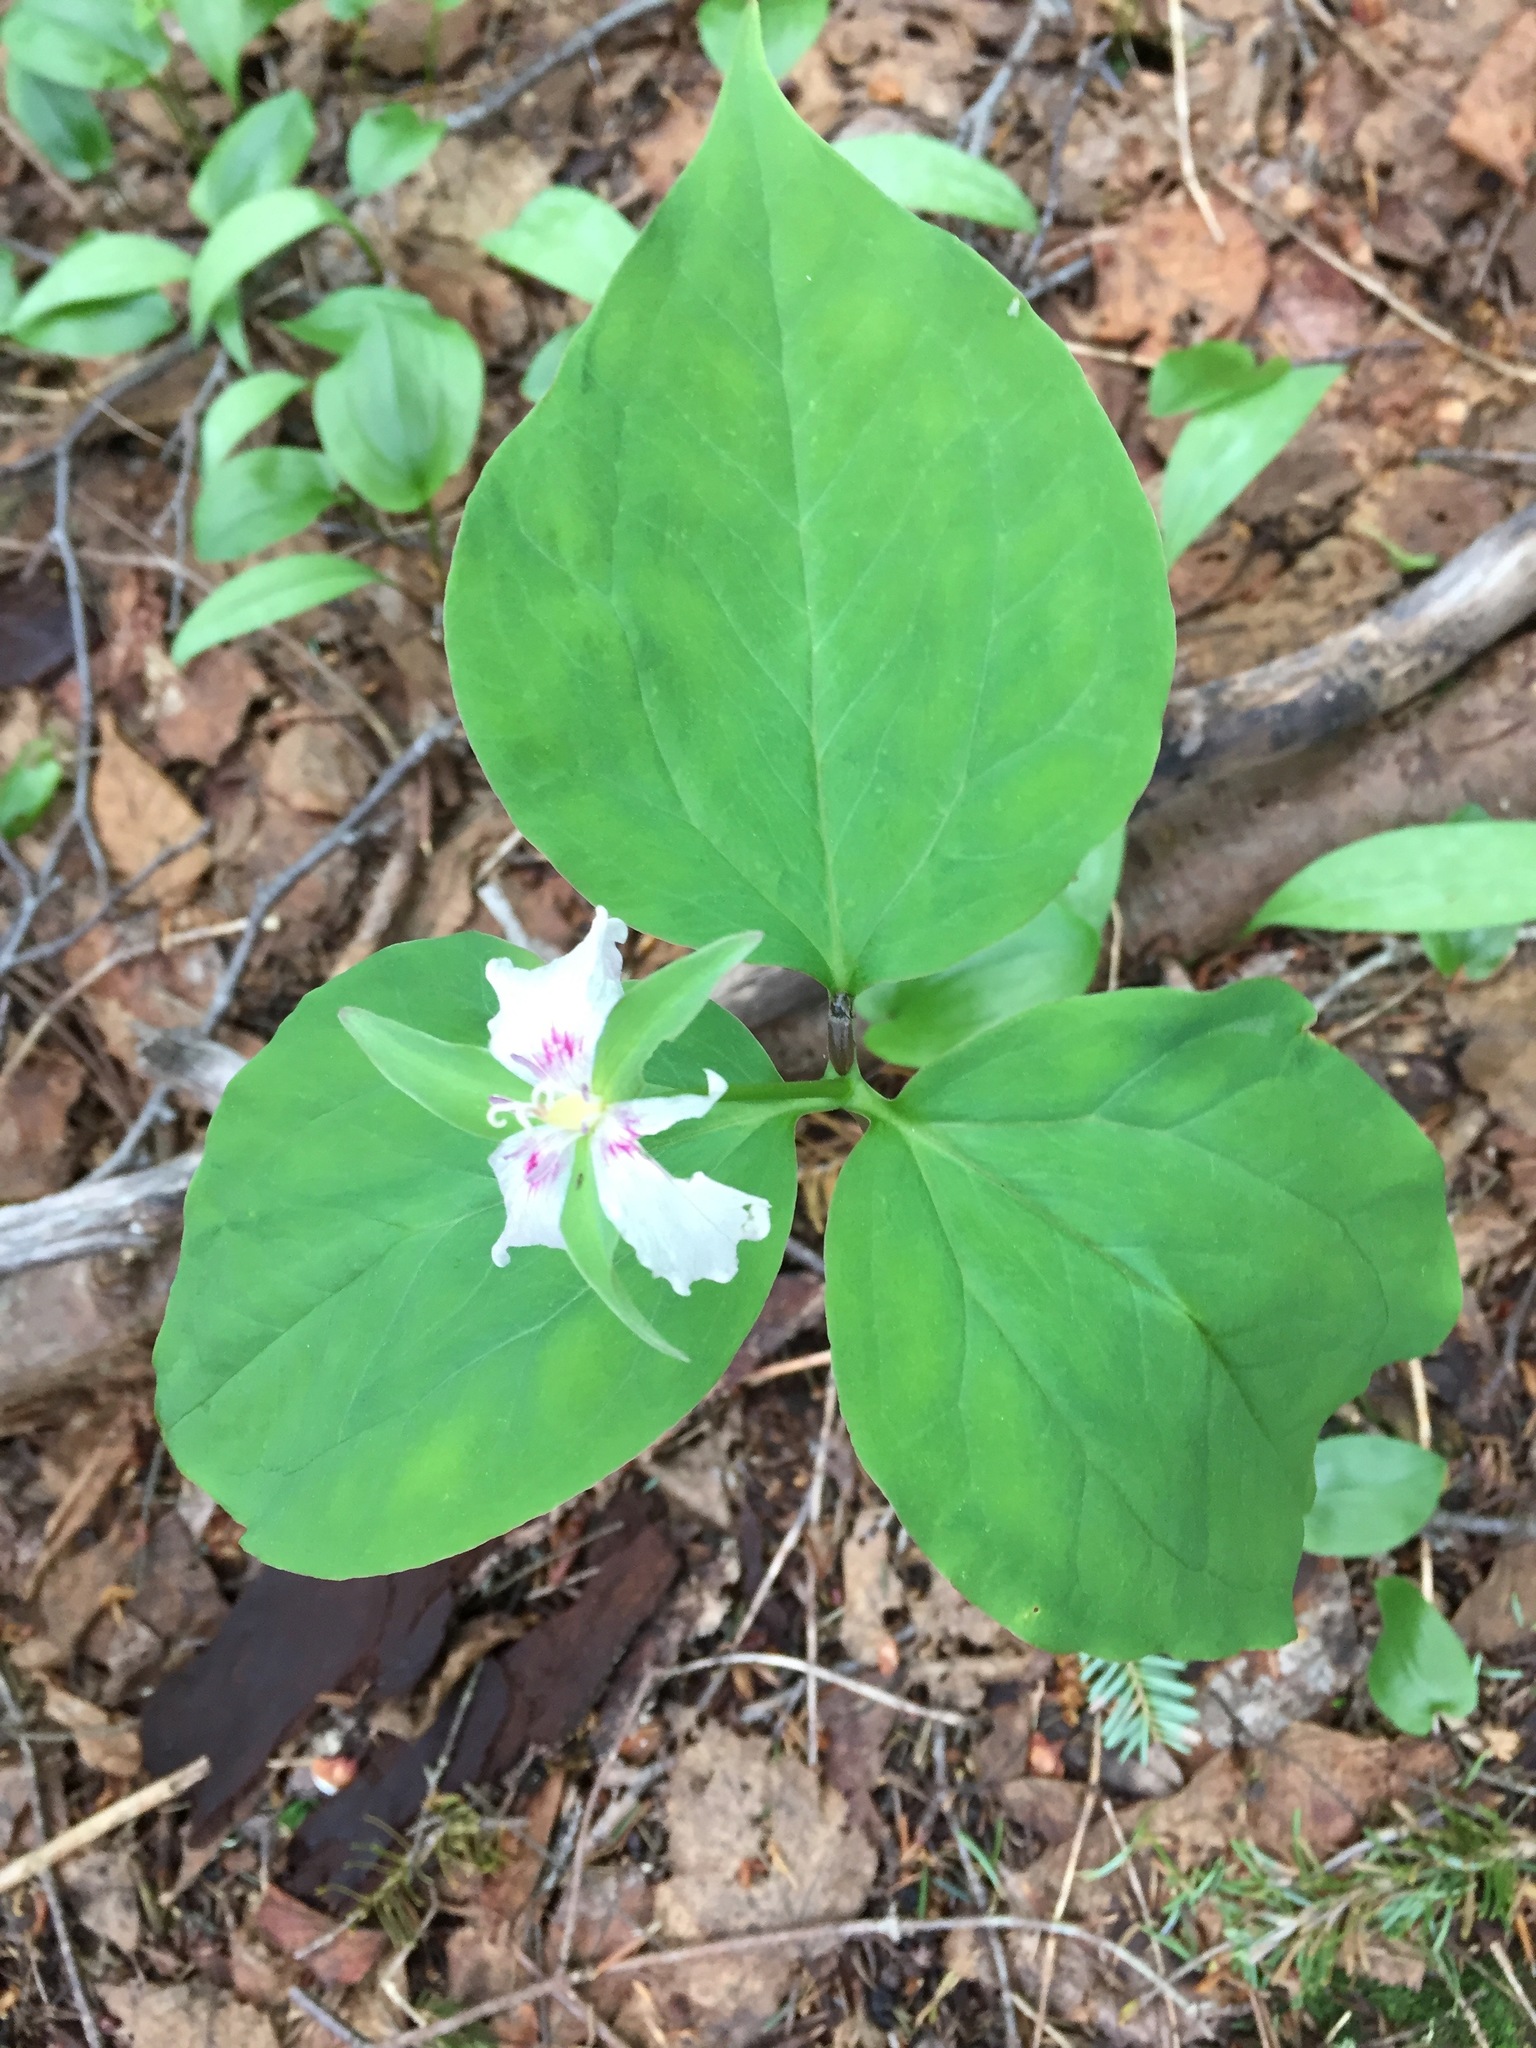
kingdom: Plantae
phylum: Tracheophyta
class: Liliopsida
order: Liliales
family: Melanthiaceae
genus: Trillium
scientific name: Trillium undulatum
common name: Paint trillium
